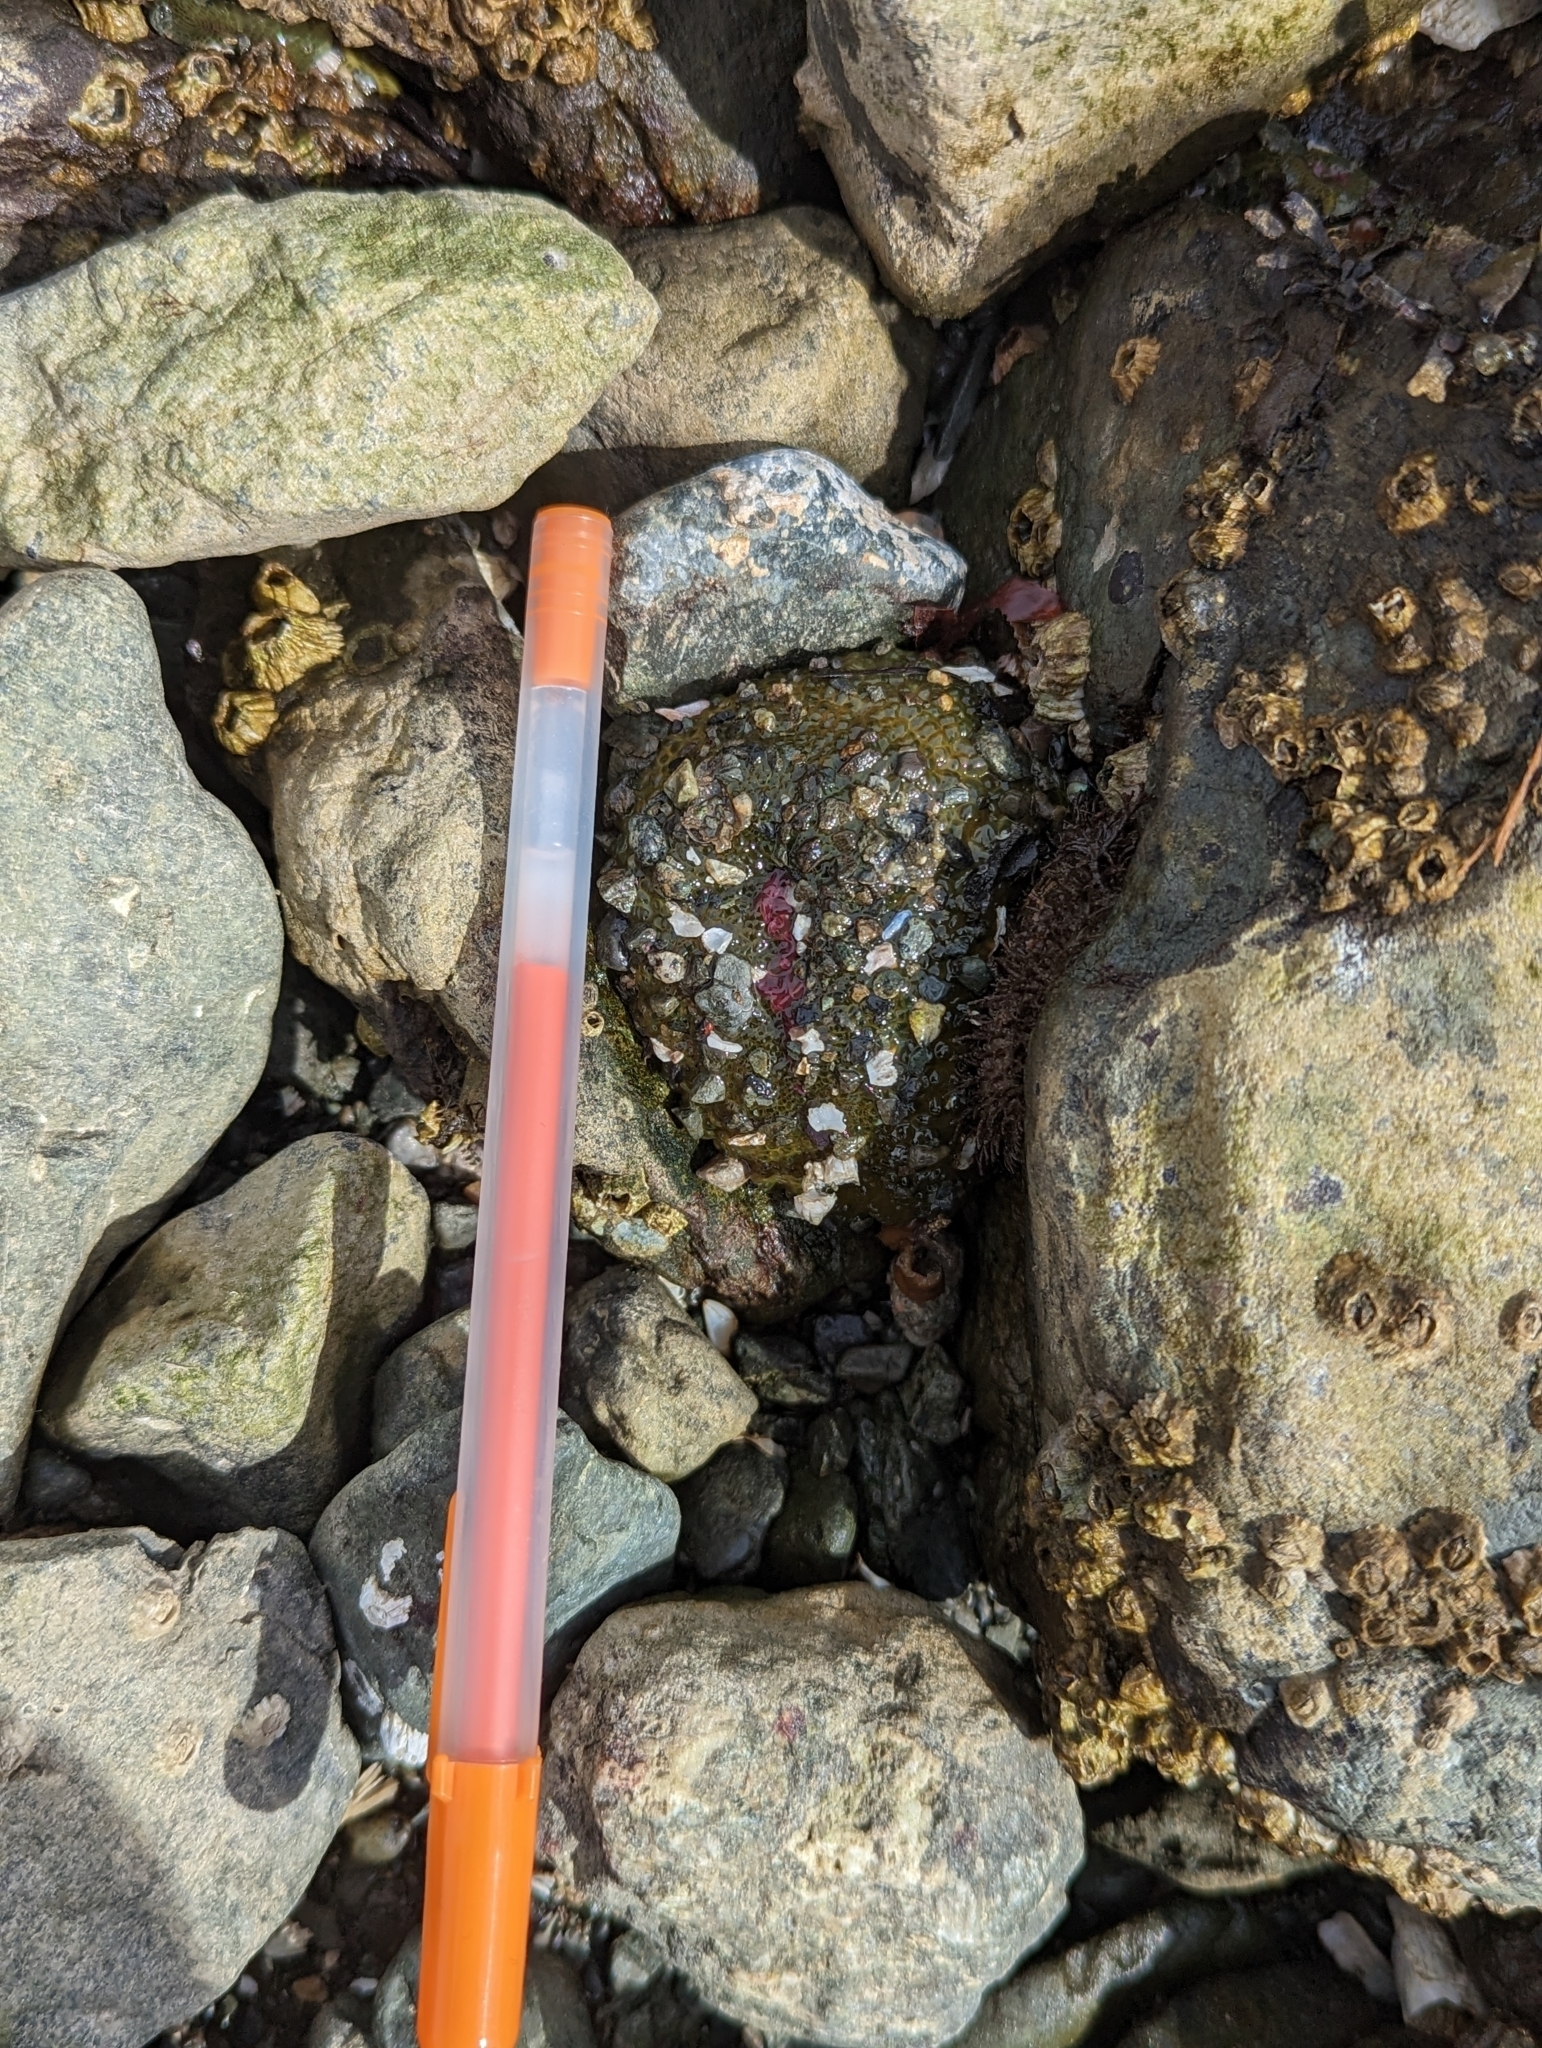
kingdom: Animalia
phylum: Cnidaria
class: Anthozoa
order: Actiniaria
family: Actiniidae
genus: Anthopleura
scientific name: Anthopleura elegantissima
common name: Clonal anemone
